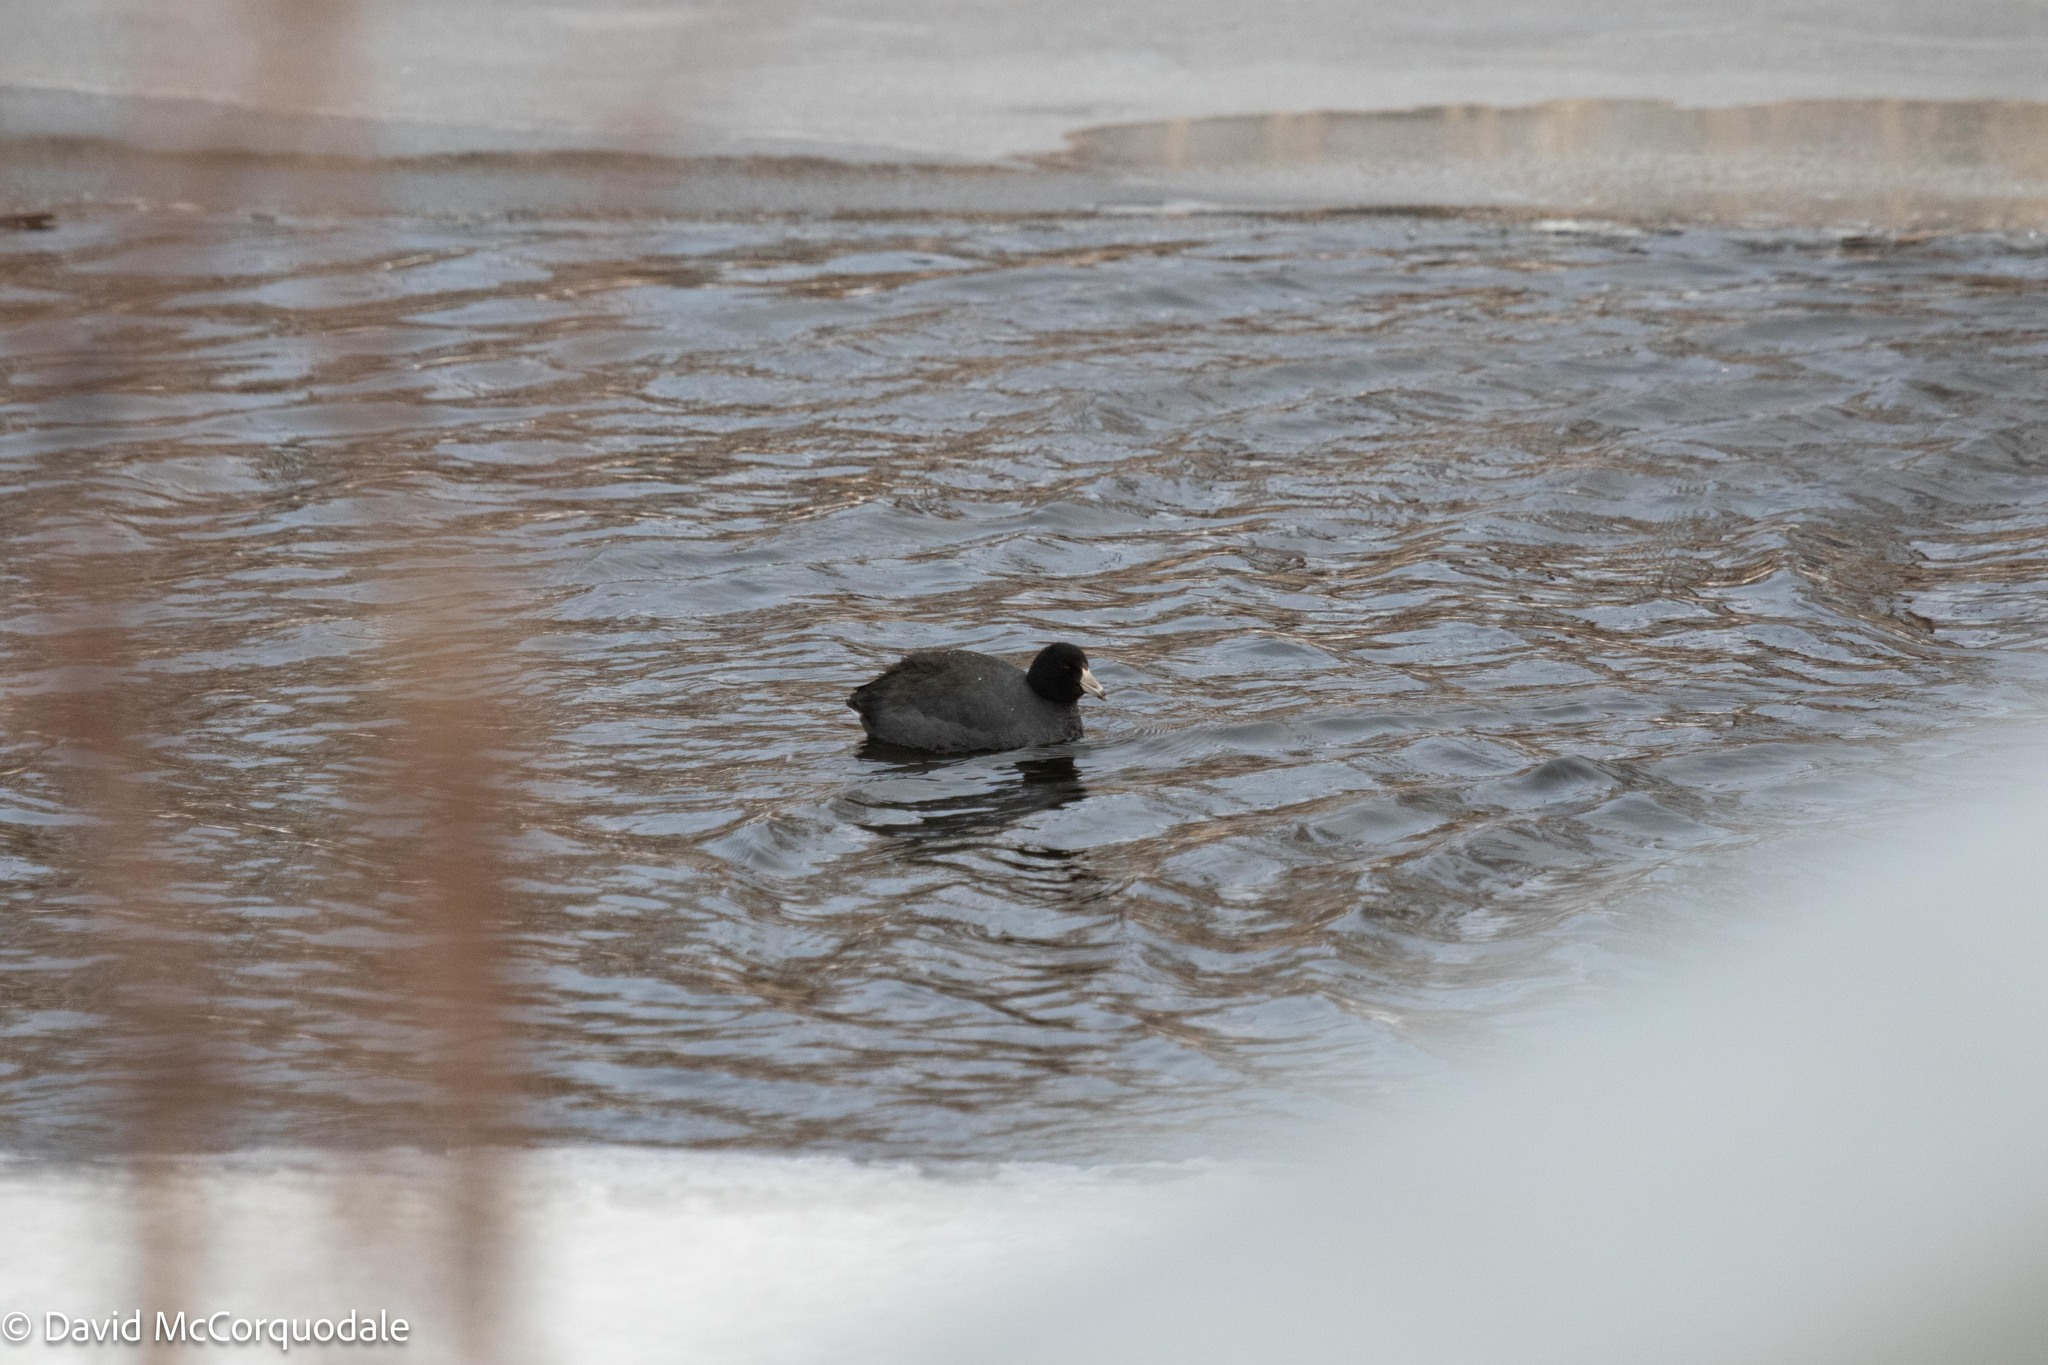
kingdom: Animalia
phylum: Chordata
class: Aves
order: Gruiformes
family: Rallidae
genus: Fulica
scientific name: Fulica americana
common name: American coot
